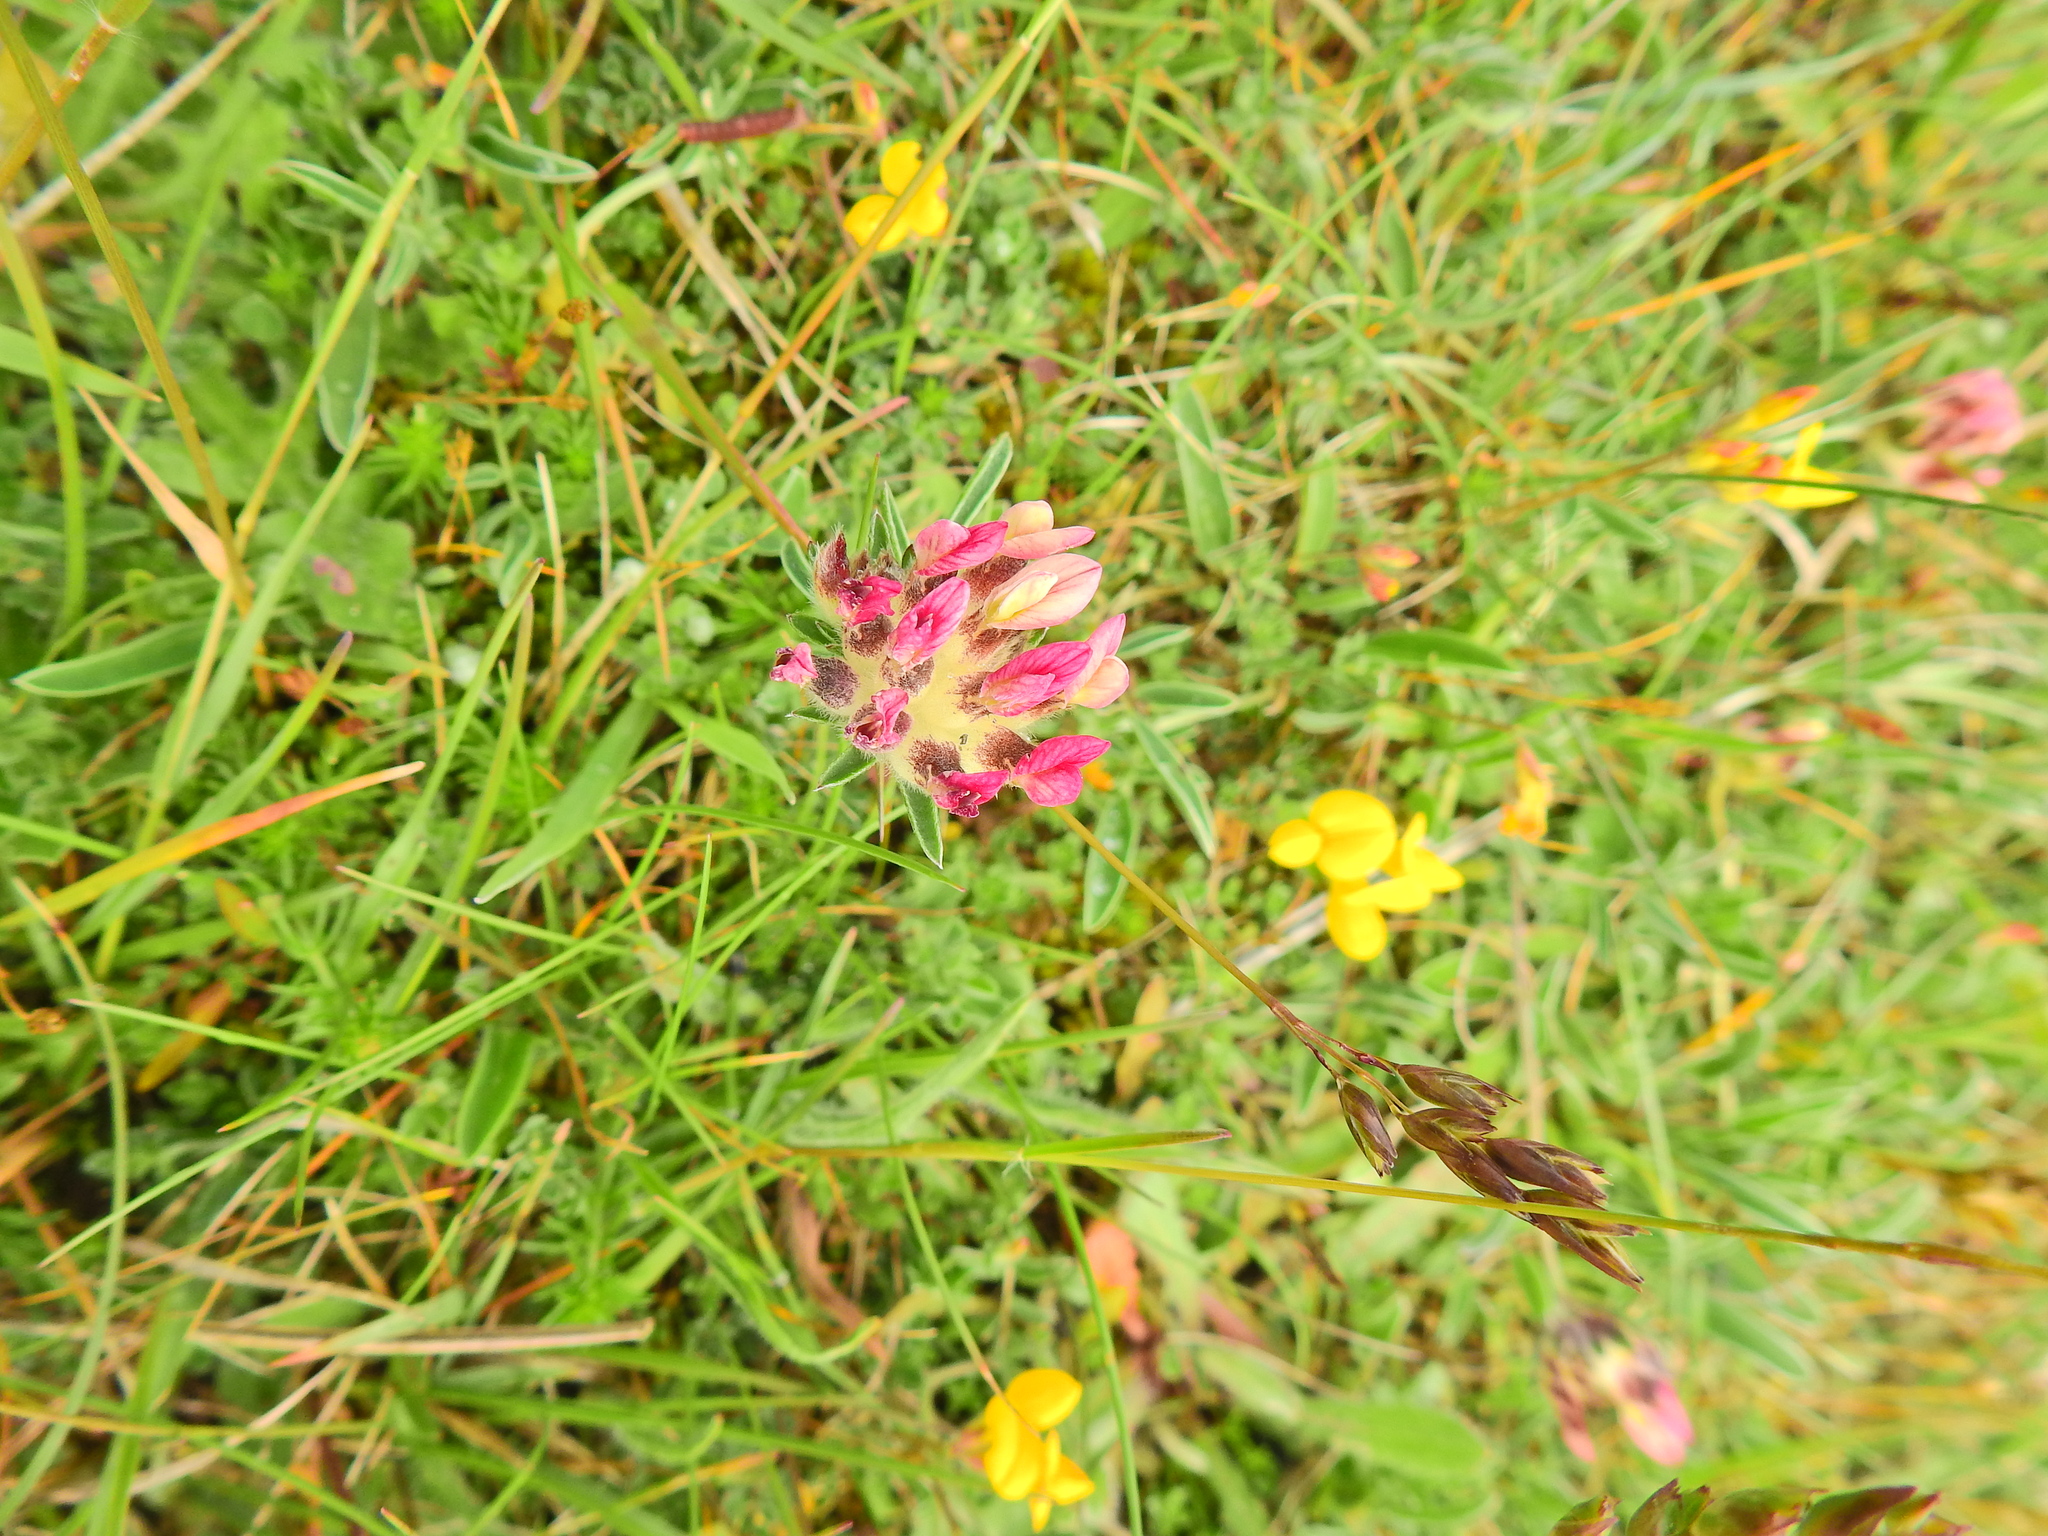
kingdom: Plantae
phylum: Tracheophyta
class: Magnoliopsida
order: Fabales
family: Fabaceae
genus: Anthyllis
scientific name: Anthyllis vulneraria
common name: Kidney vetch
